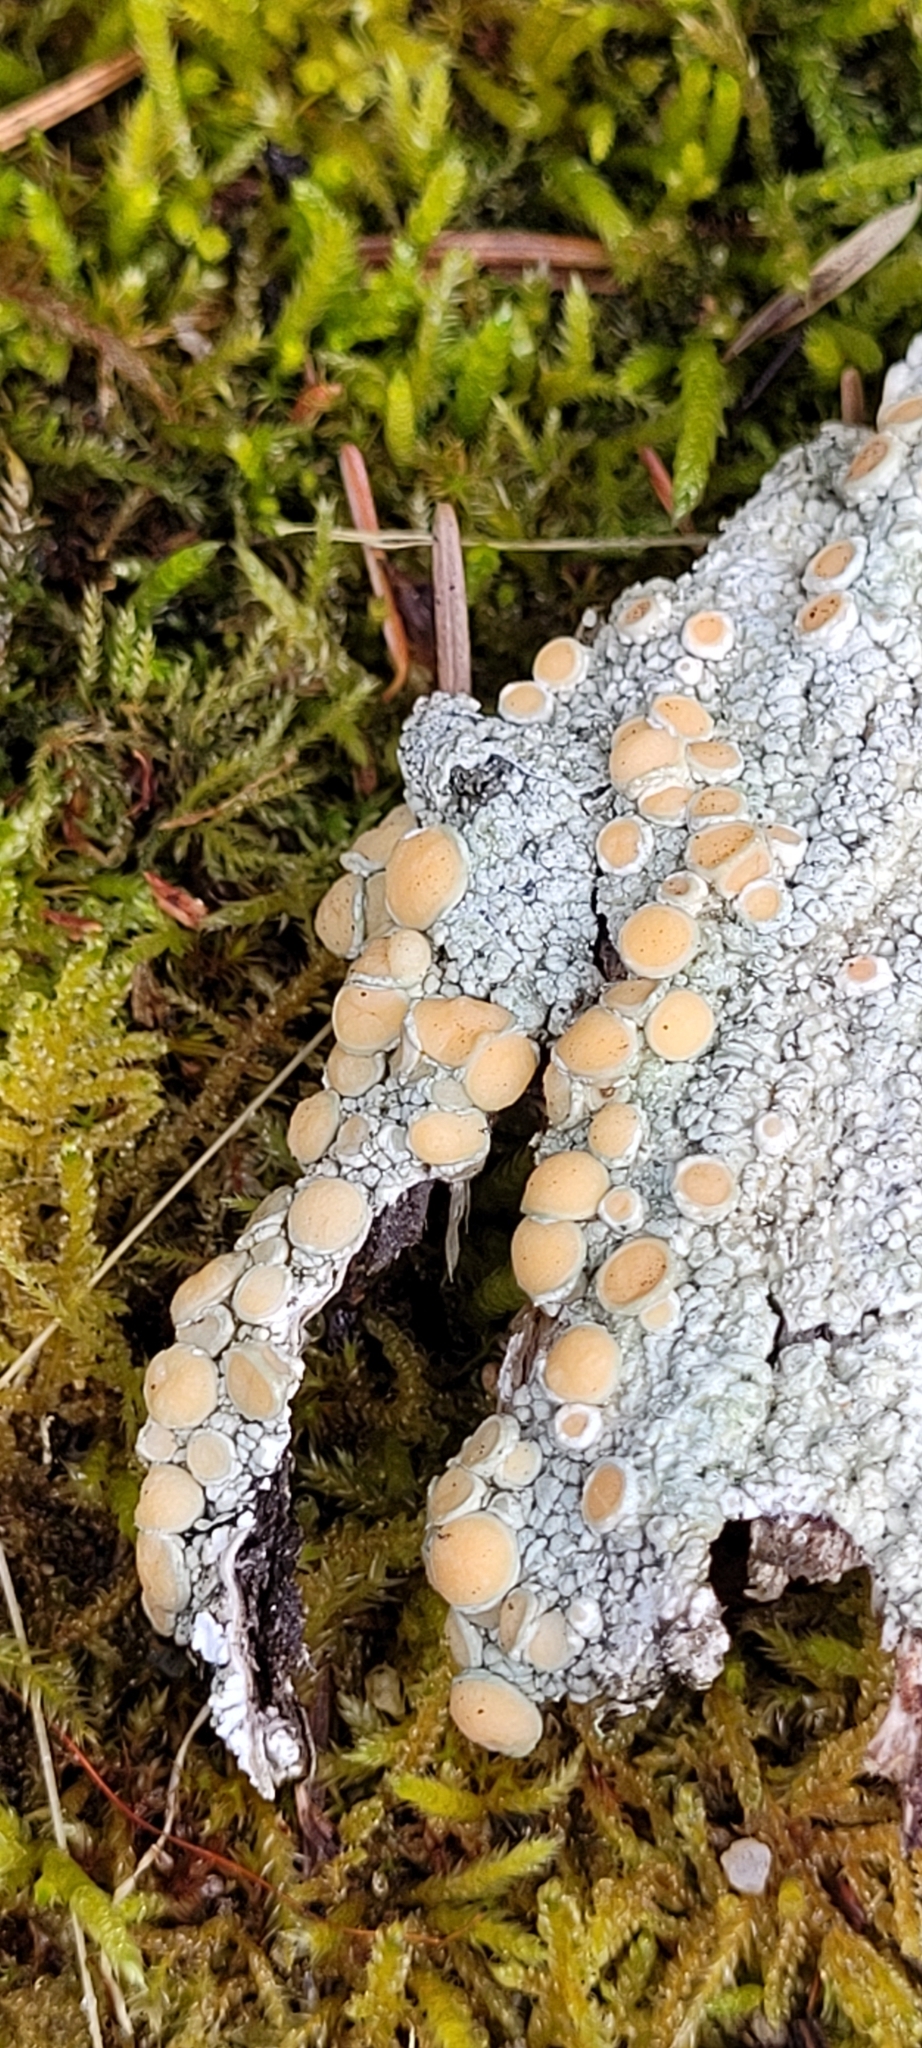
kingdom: Fungi
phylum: Ascomycota
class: Lecanoromycetes
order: Pertusariales
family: Ochrolechiaceae
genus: Ochrolechia
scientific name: Ochrolechia oregonensis
